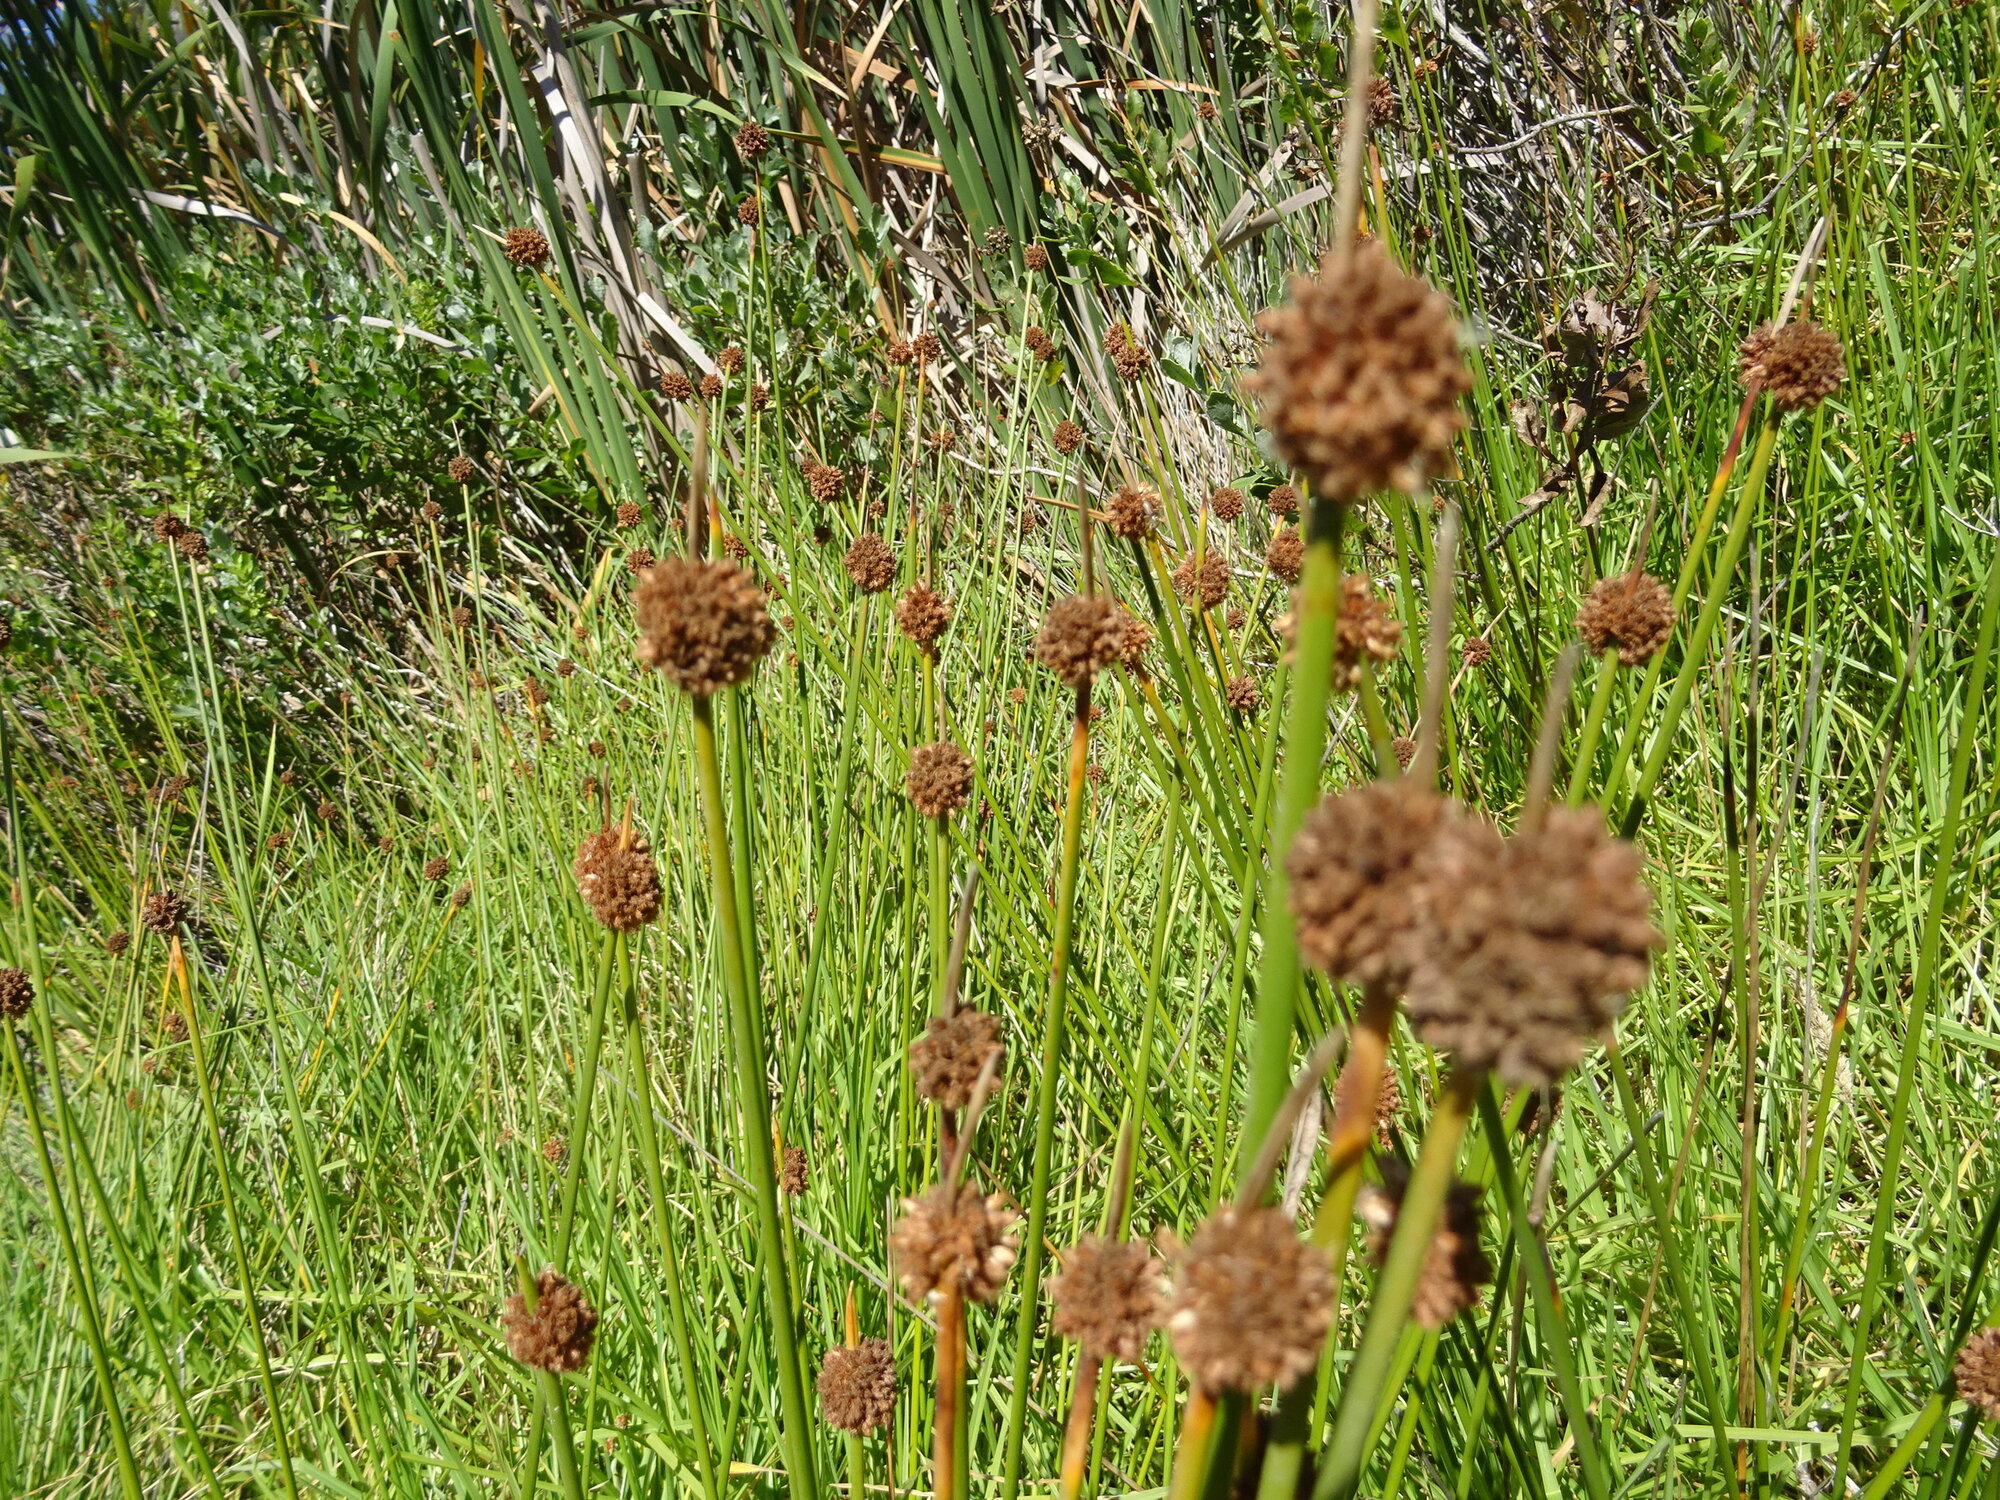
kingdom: Plantae
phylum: Tracheophyta
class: Liliopsida
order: Poales
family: Cyperaceae
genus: Ficinia
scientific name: Ficinia nodosa
